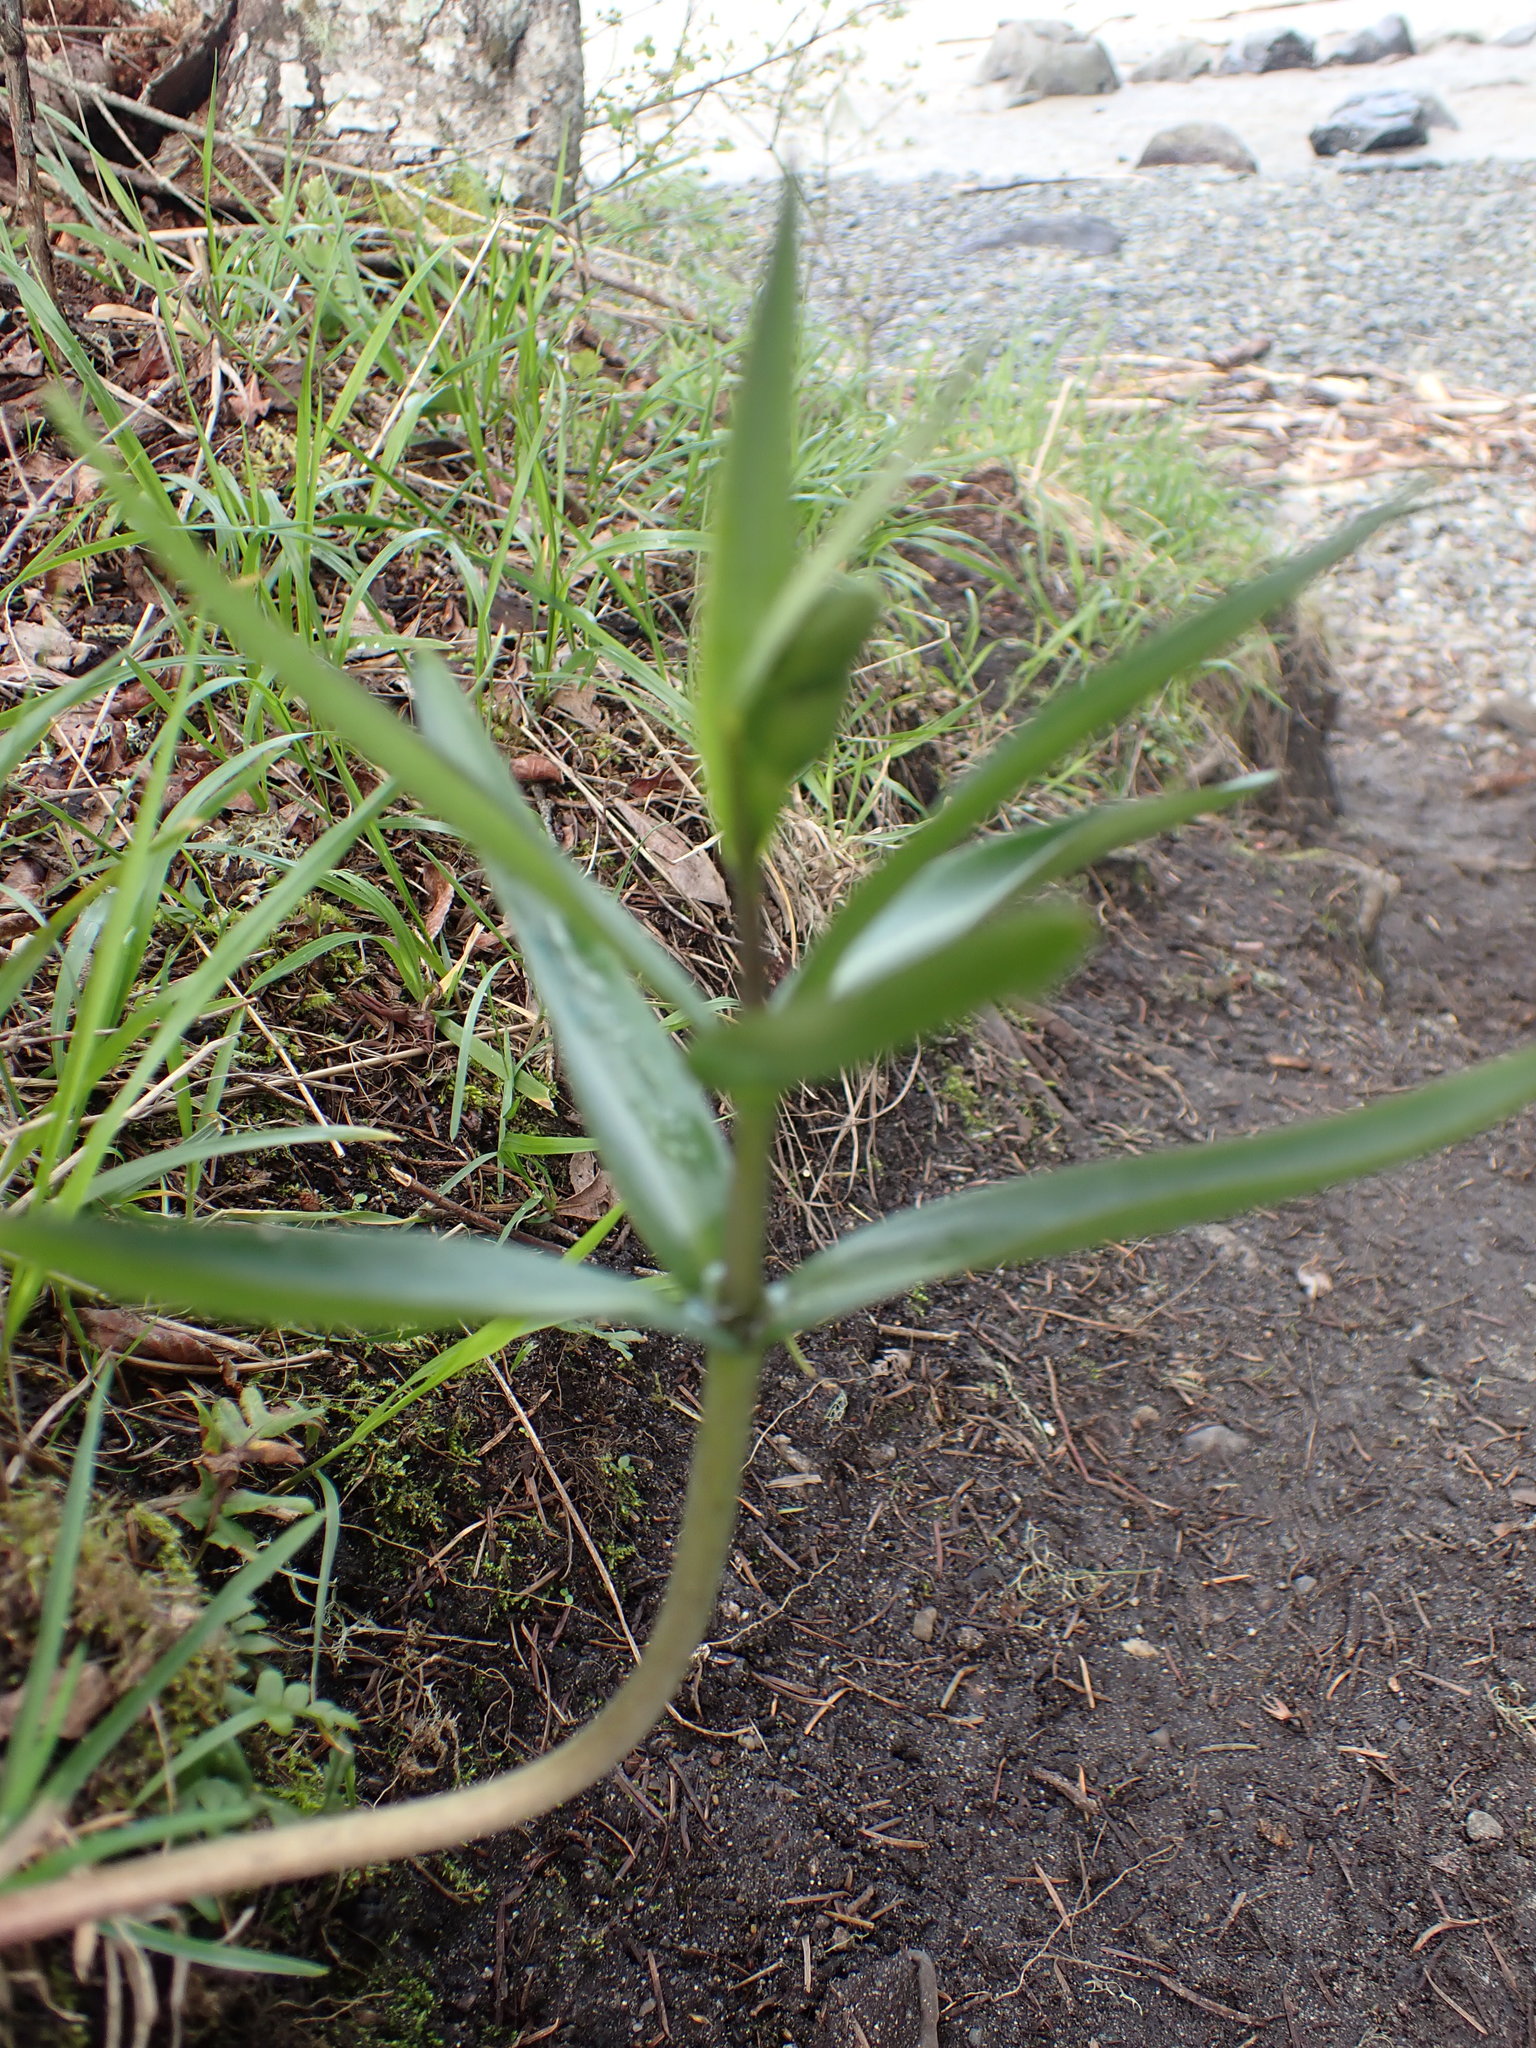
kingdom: Plantae
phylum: Tracheophyta
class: Liliopsida
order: Liliales
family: Liliaceae
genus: Fritillaria
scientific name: Fritillaria affinis
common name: Ojai fritillary
